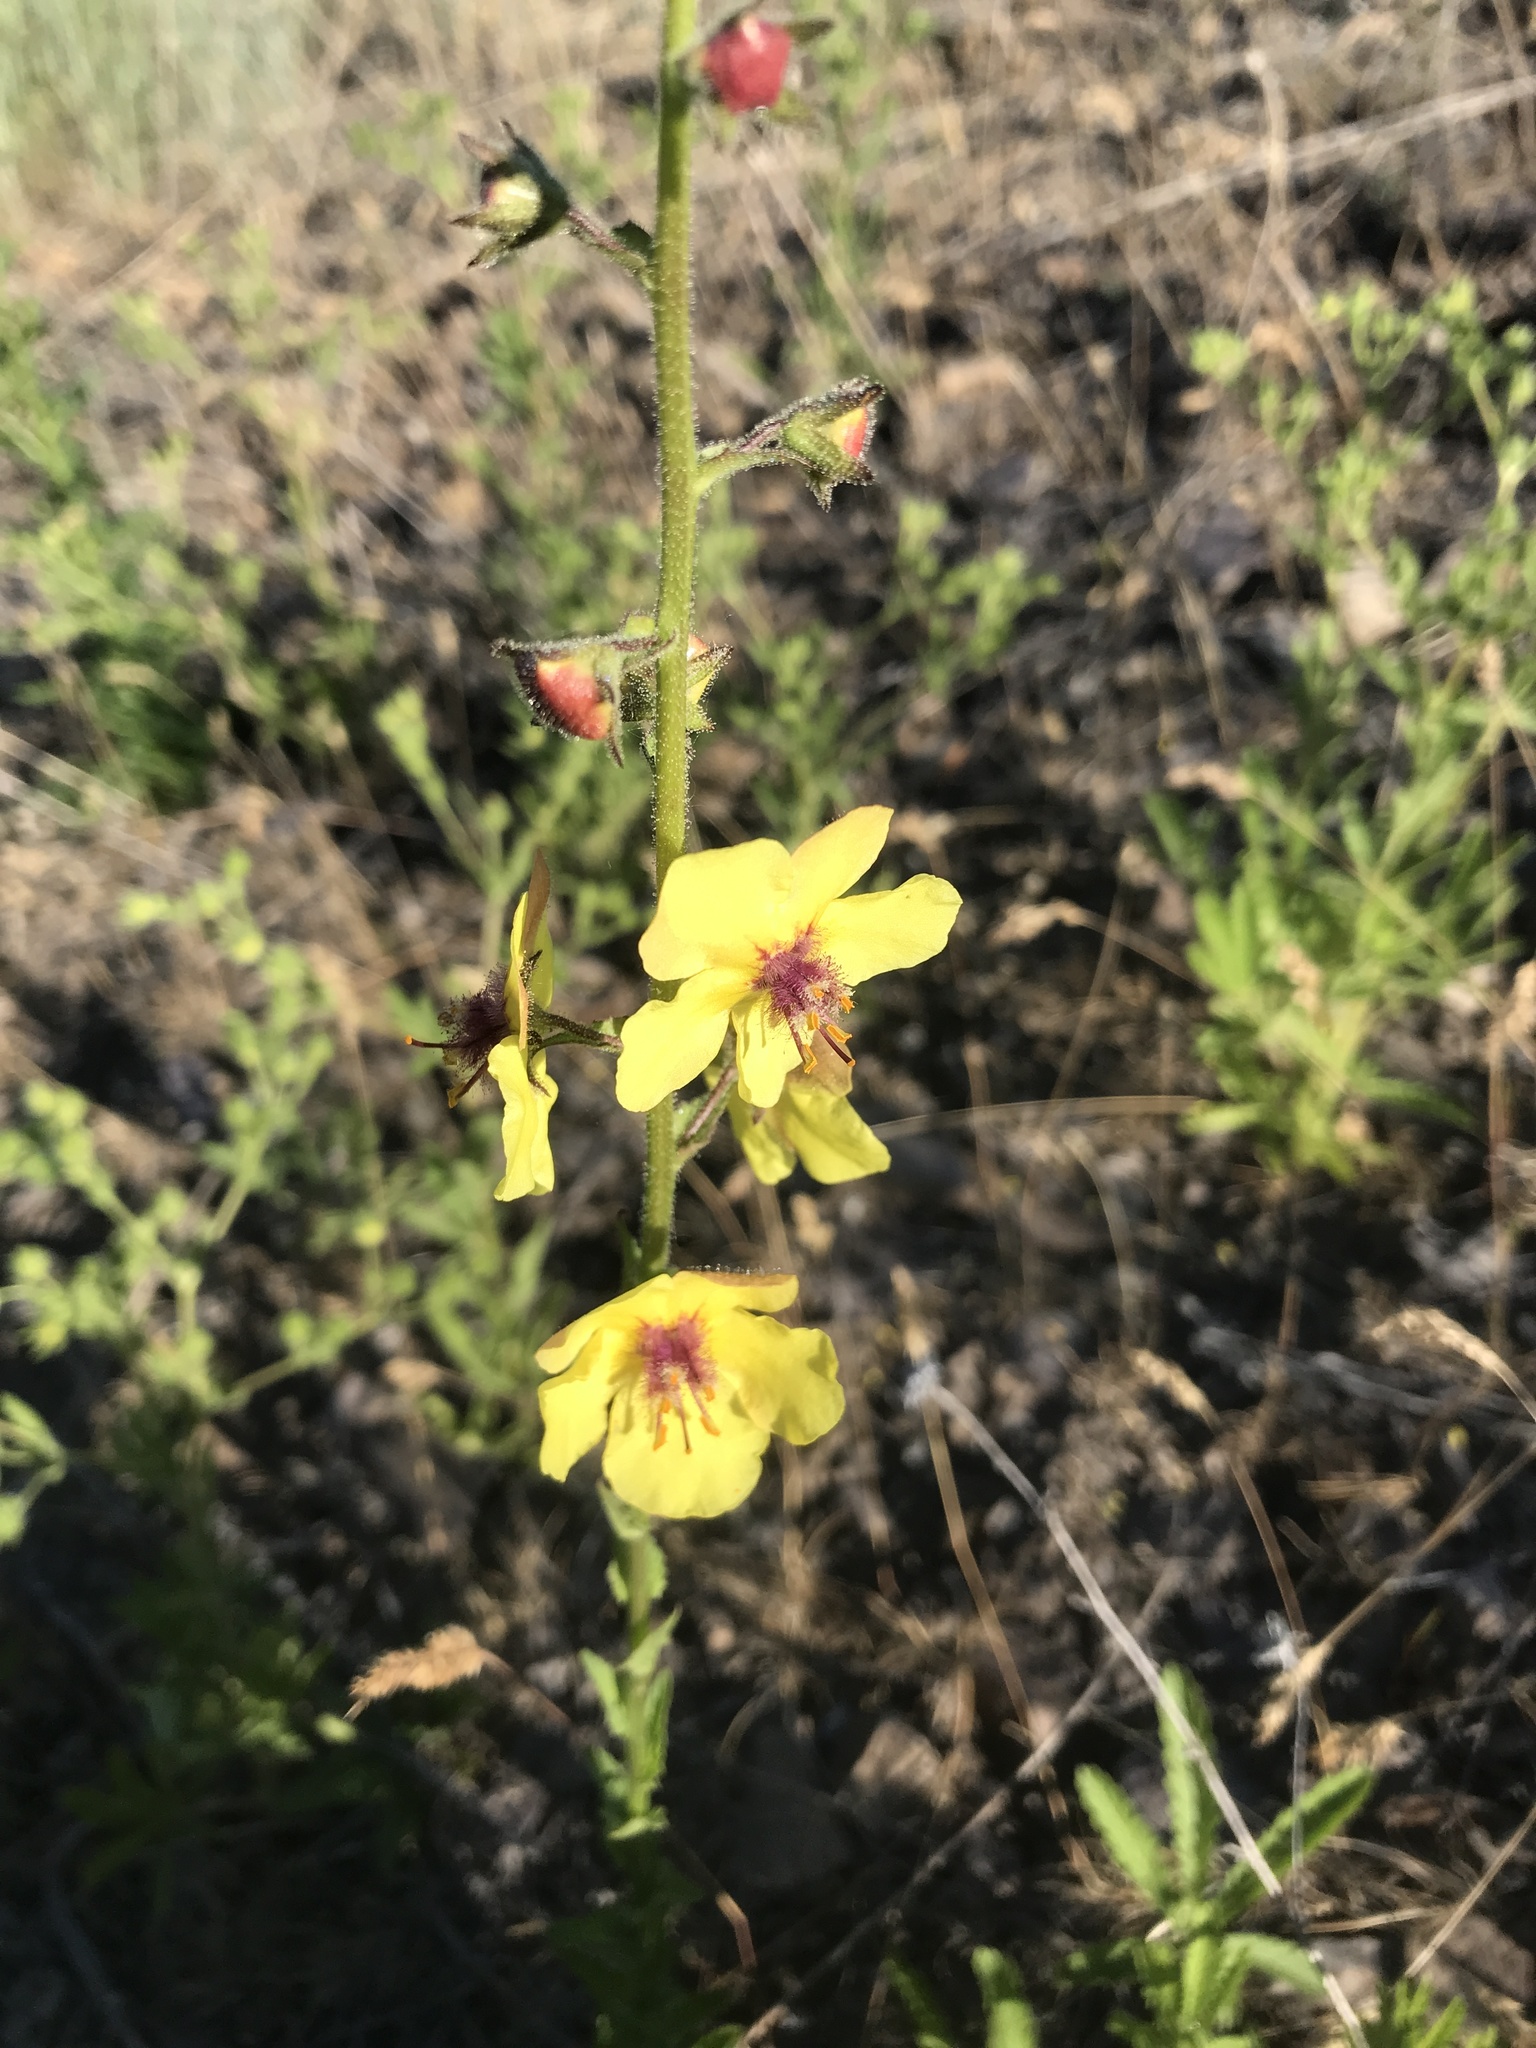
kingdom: Plantae
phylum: Tracheophyta
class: Magnoliopsida
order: Lamiales
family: Scrophulariaceae
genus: Verbascum
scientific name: Verbascum blattaria
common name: Moth mullein
